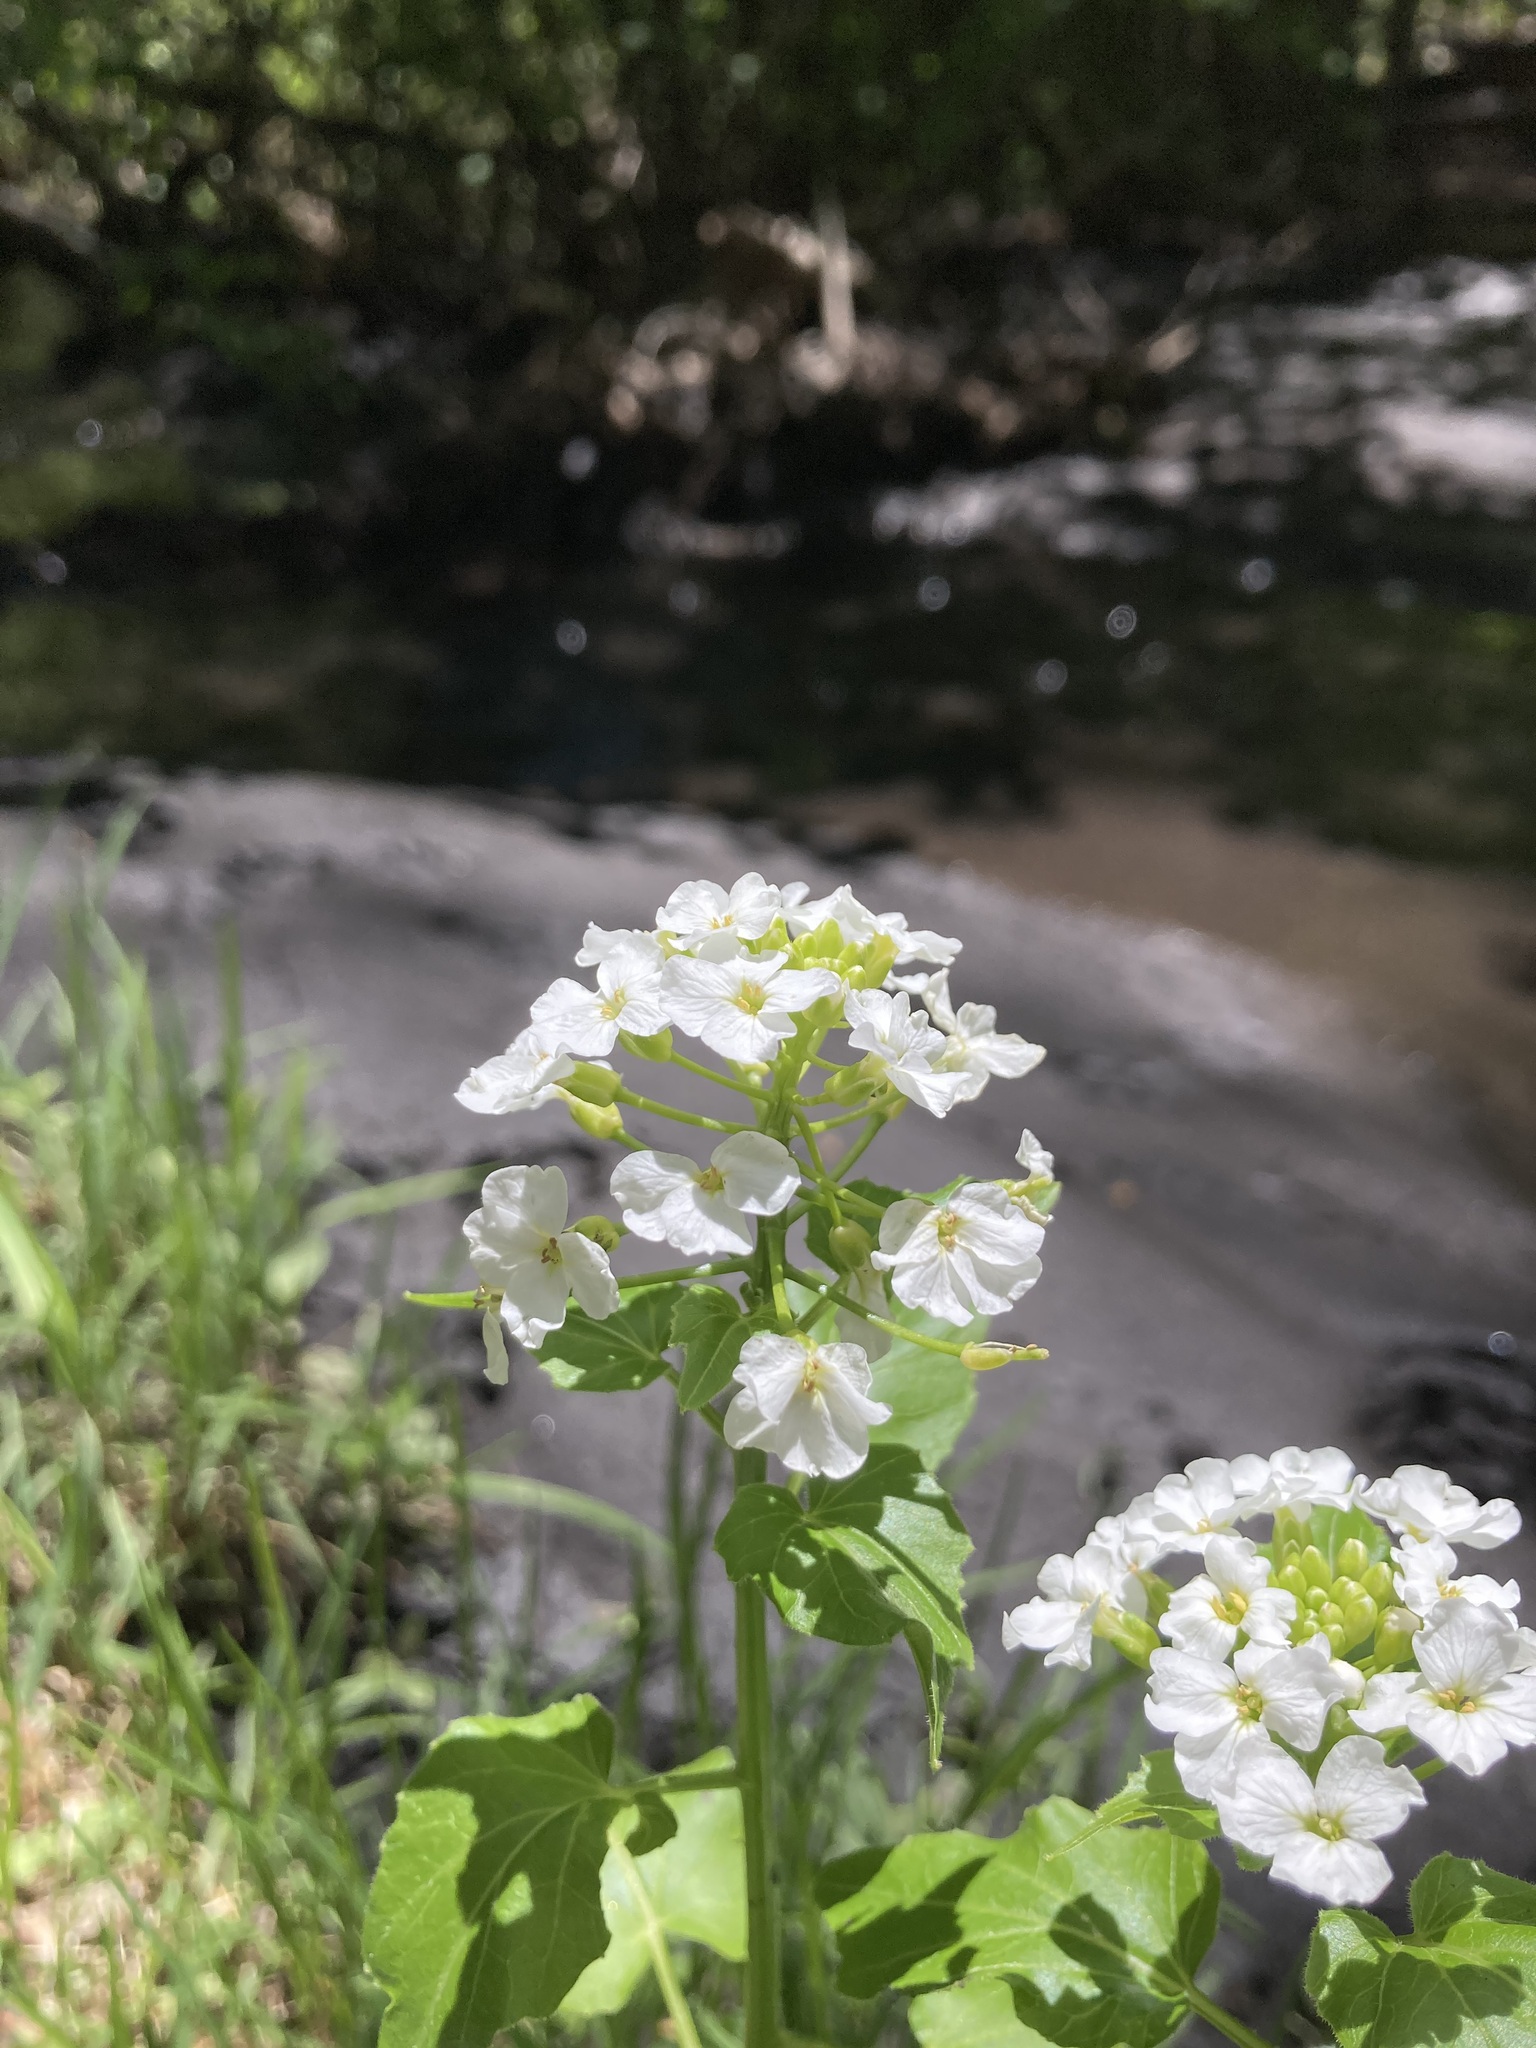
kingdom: Plantae
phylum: Tracheophyta
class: Magnoliopsida
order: Brassicales
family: Brassicaceae
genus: Cardamine
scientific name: Cardamine cordifolia
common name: Heart-leaf bittercress
